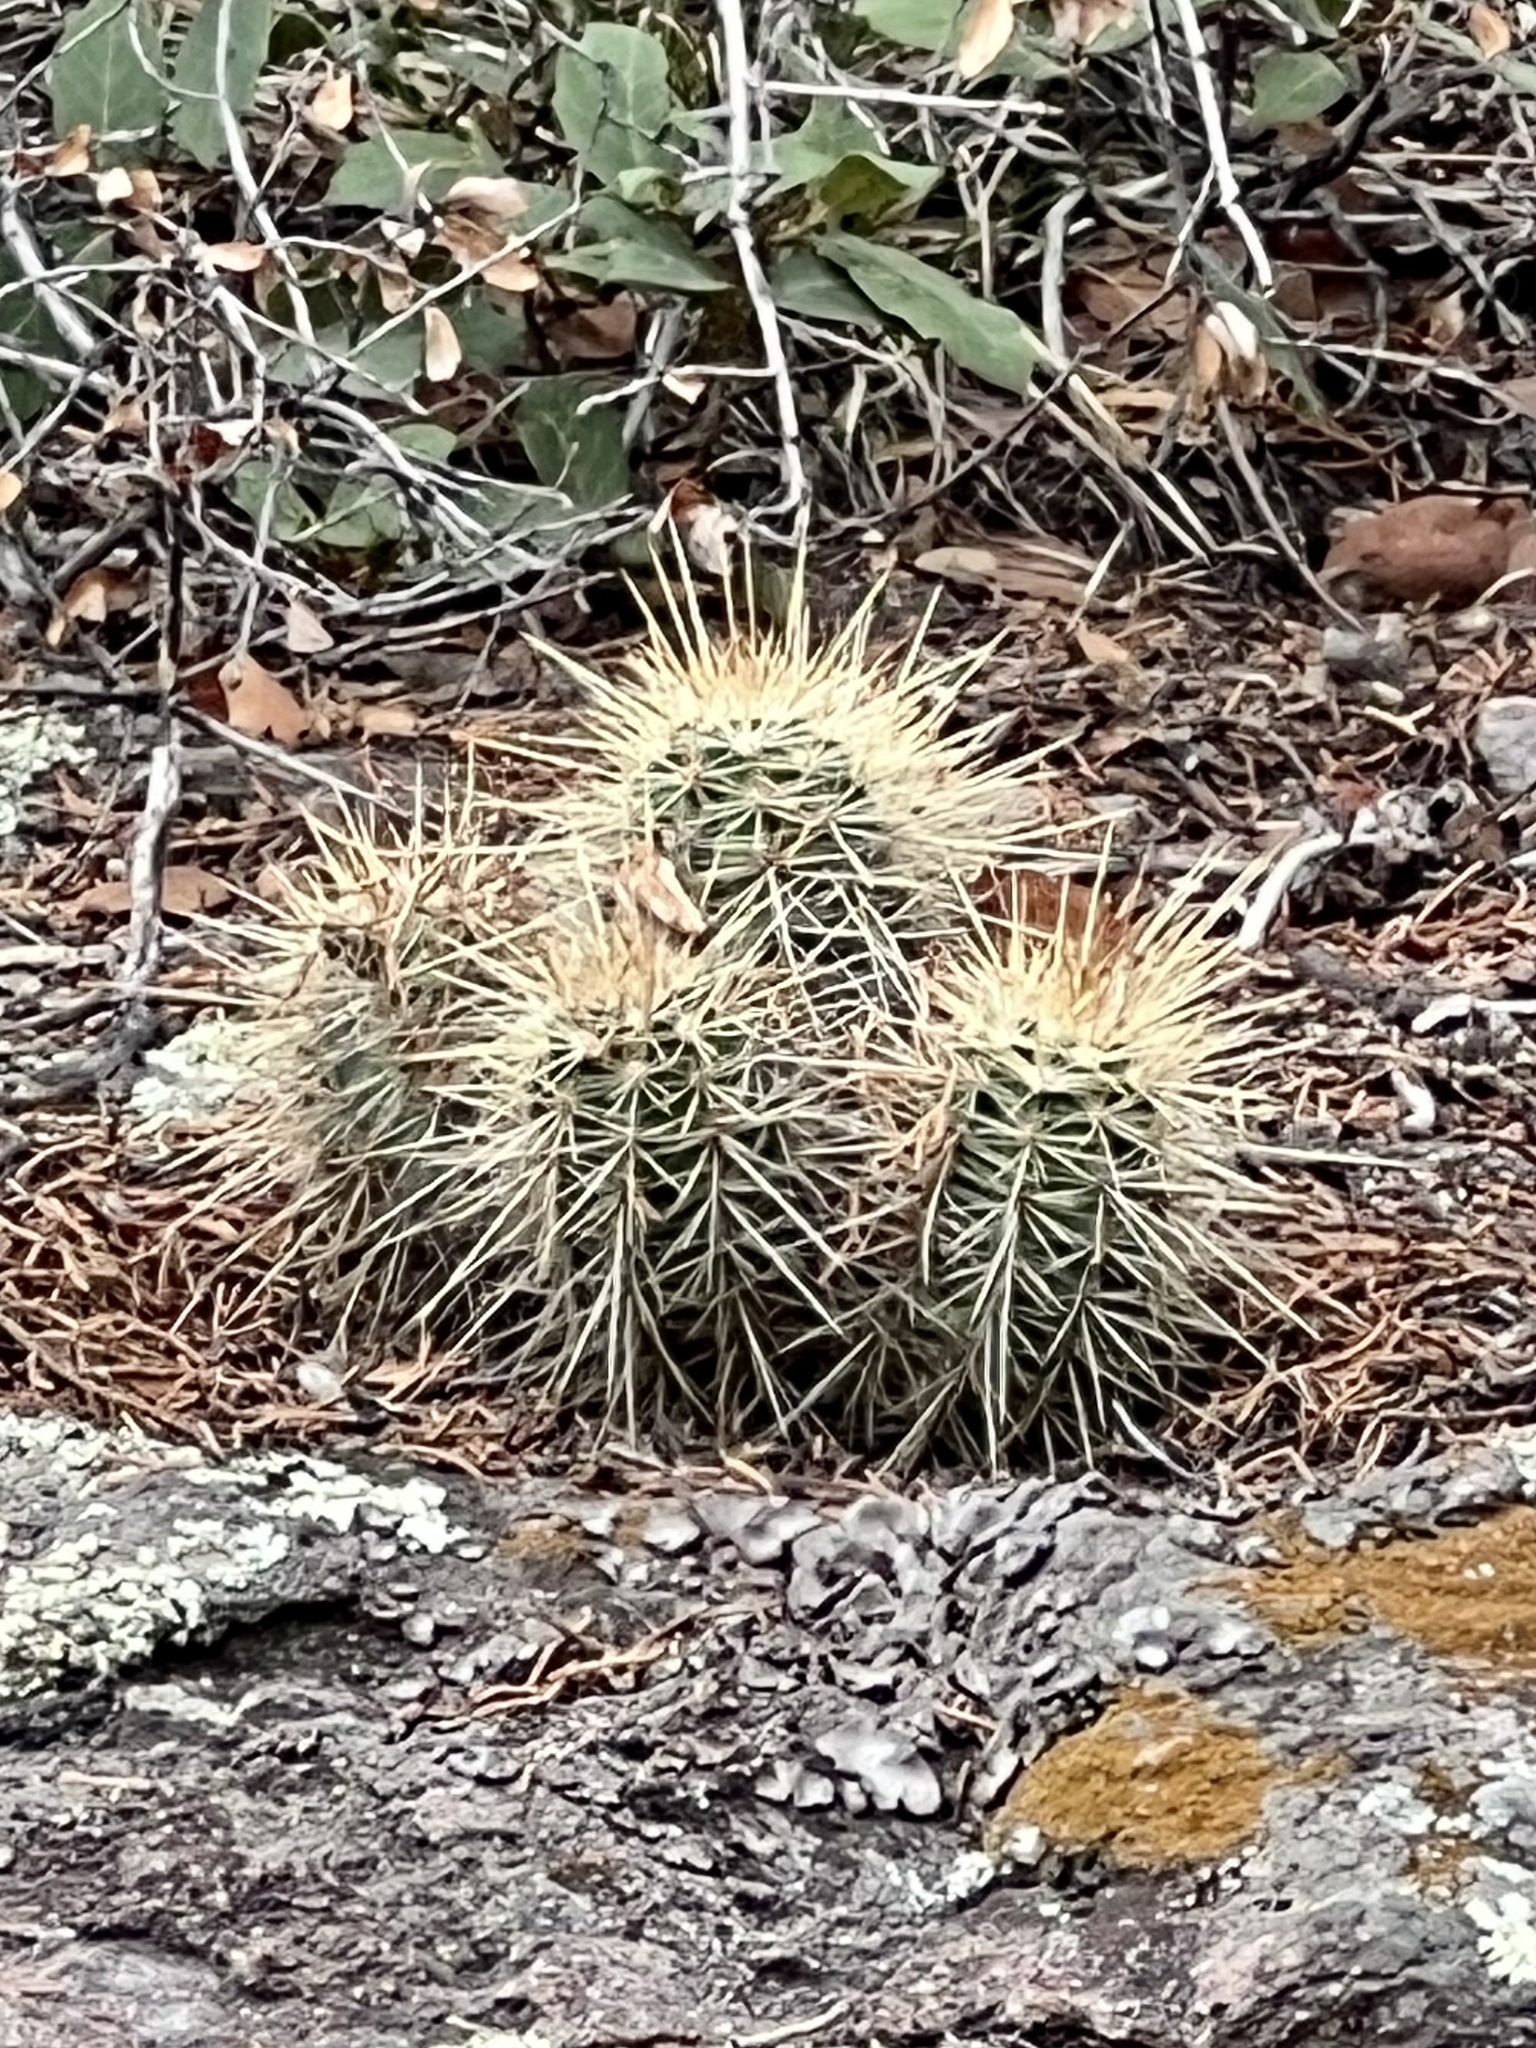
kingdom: Plantae
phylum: Tracheophyta
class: Magnoliopsida
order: Caryophyllales
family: Cactaceae
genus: Echinocereus
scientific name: Echinocereus coccineus
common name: Scarlet hedgehog cactus
